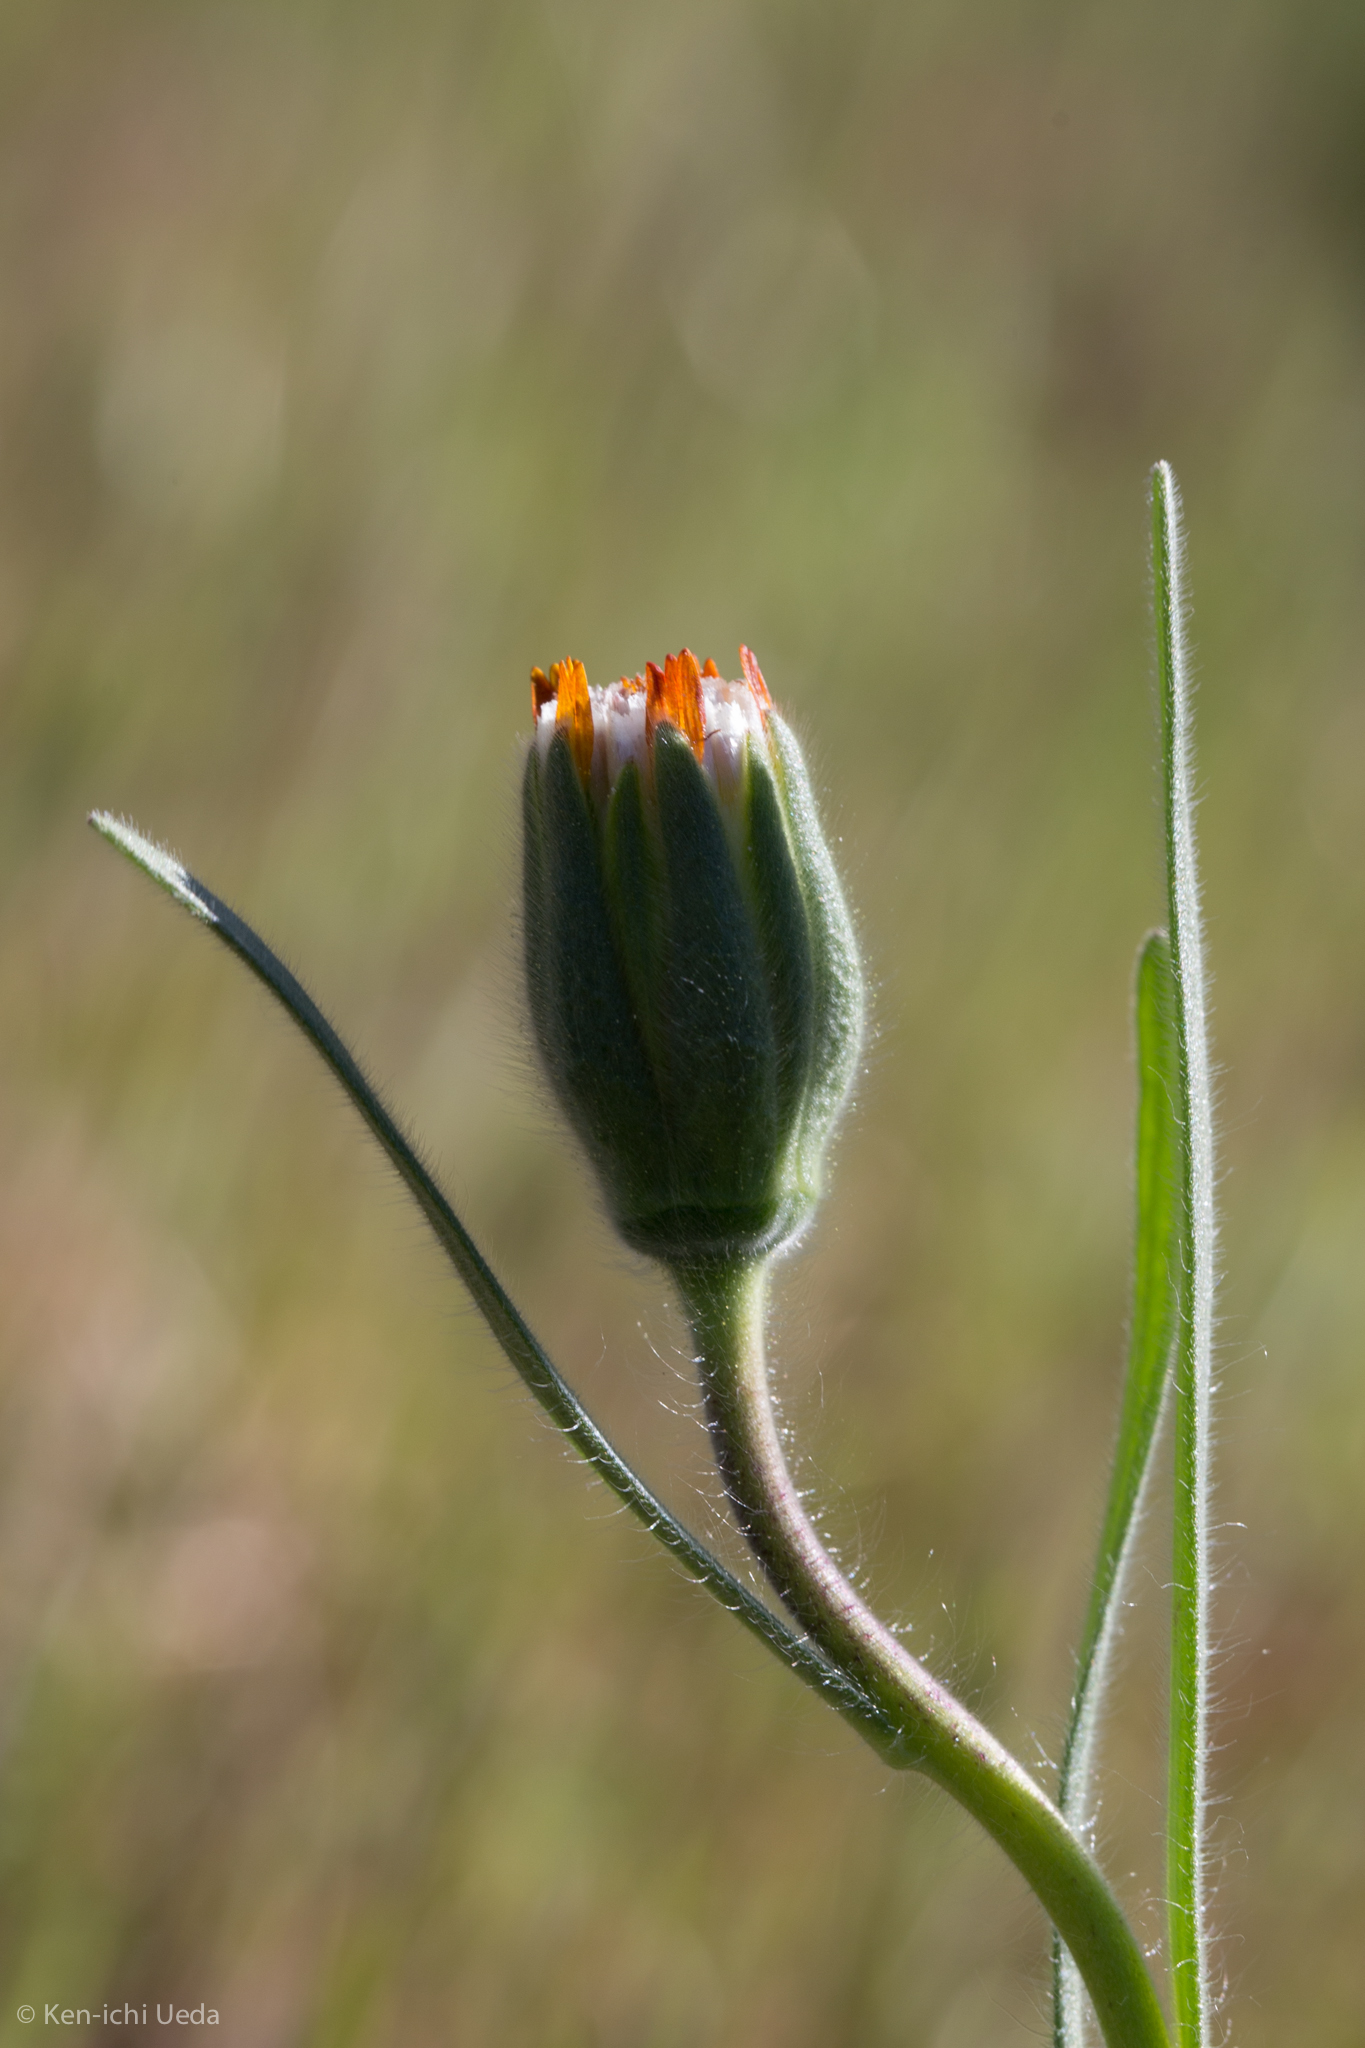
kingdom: Plantae
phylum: Tracheophyta
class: Magnoliopsida
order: Asterales
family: Asteraceae
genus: Achyrachaena
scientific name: Achyrachaena mollis
